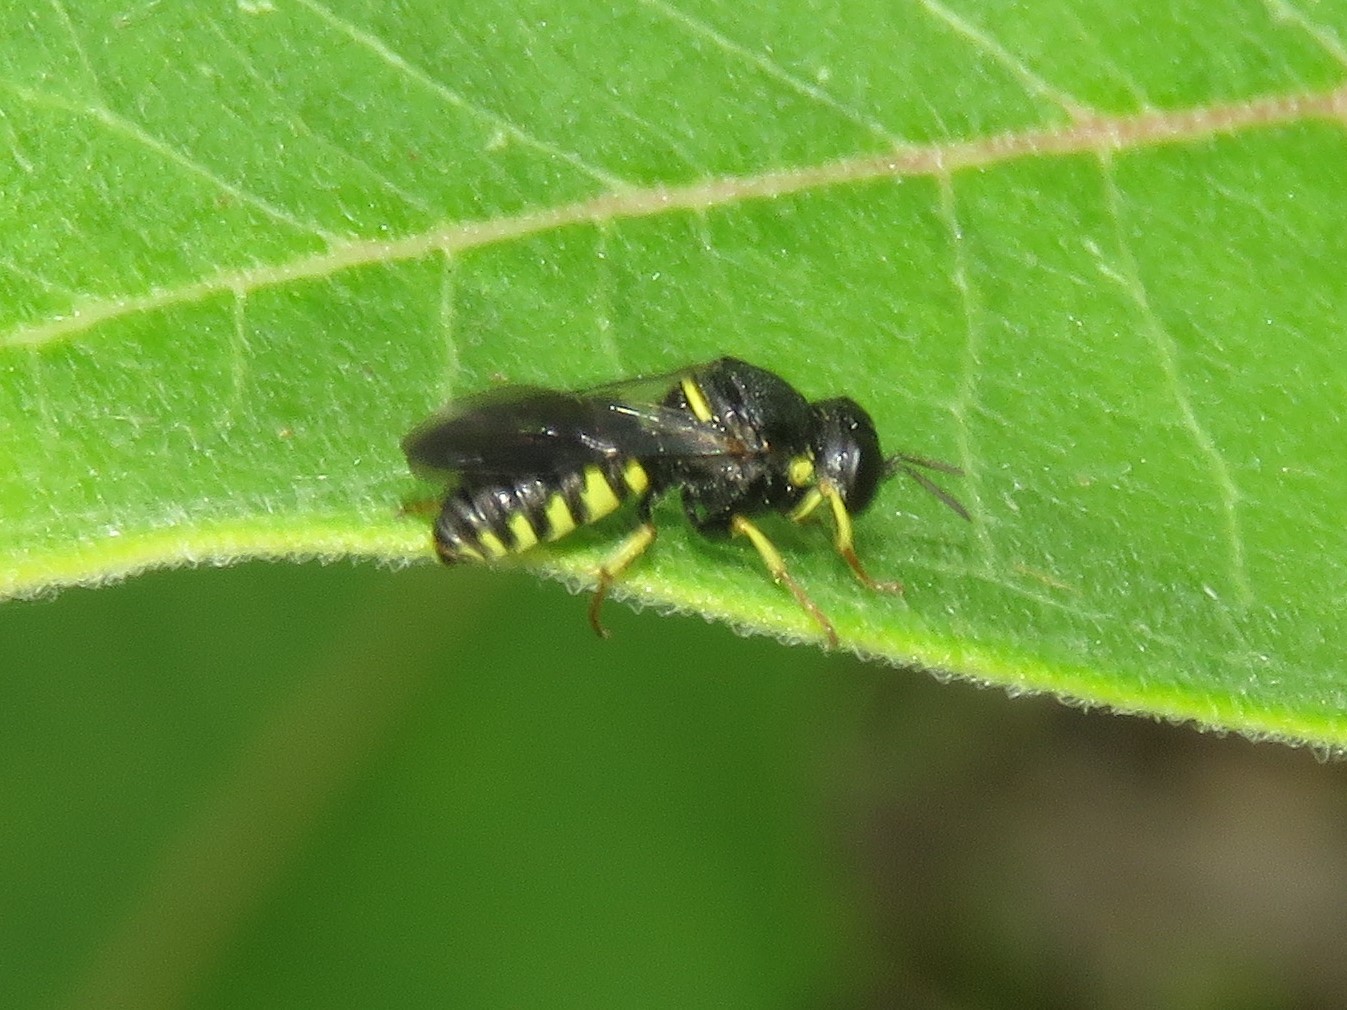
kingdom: Animalia
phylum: Arthropoda
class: Insecta
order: Hymenoptera
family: Crabronidae
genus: Anacrabro
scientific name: Anacrabro ocellatus
